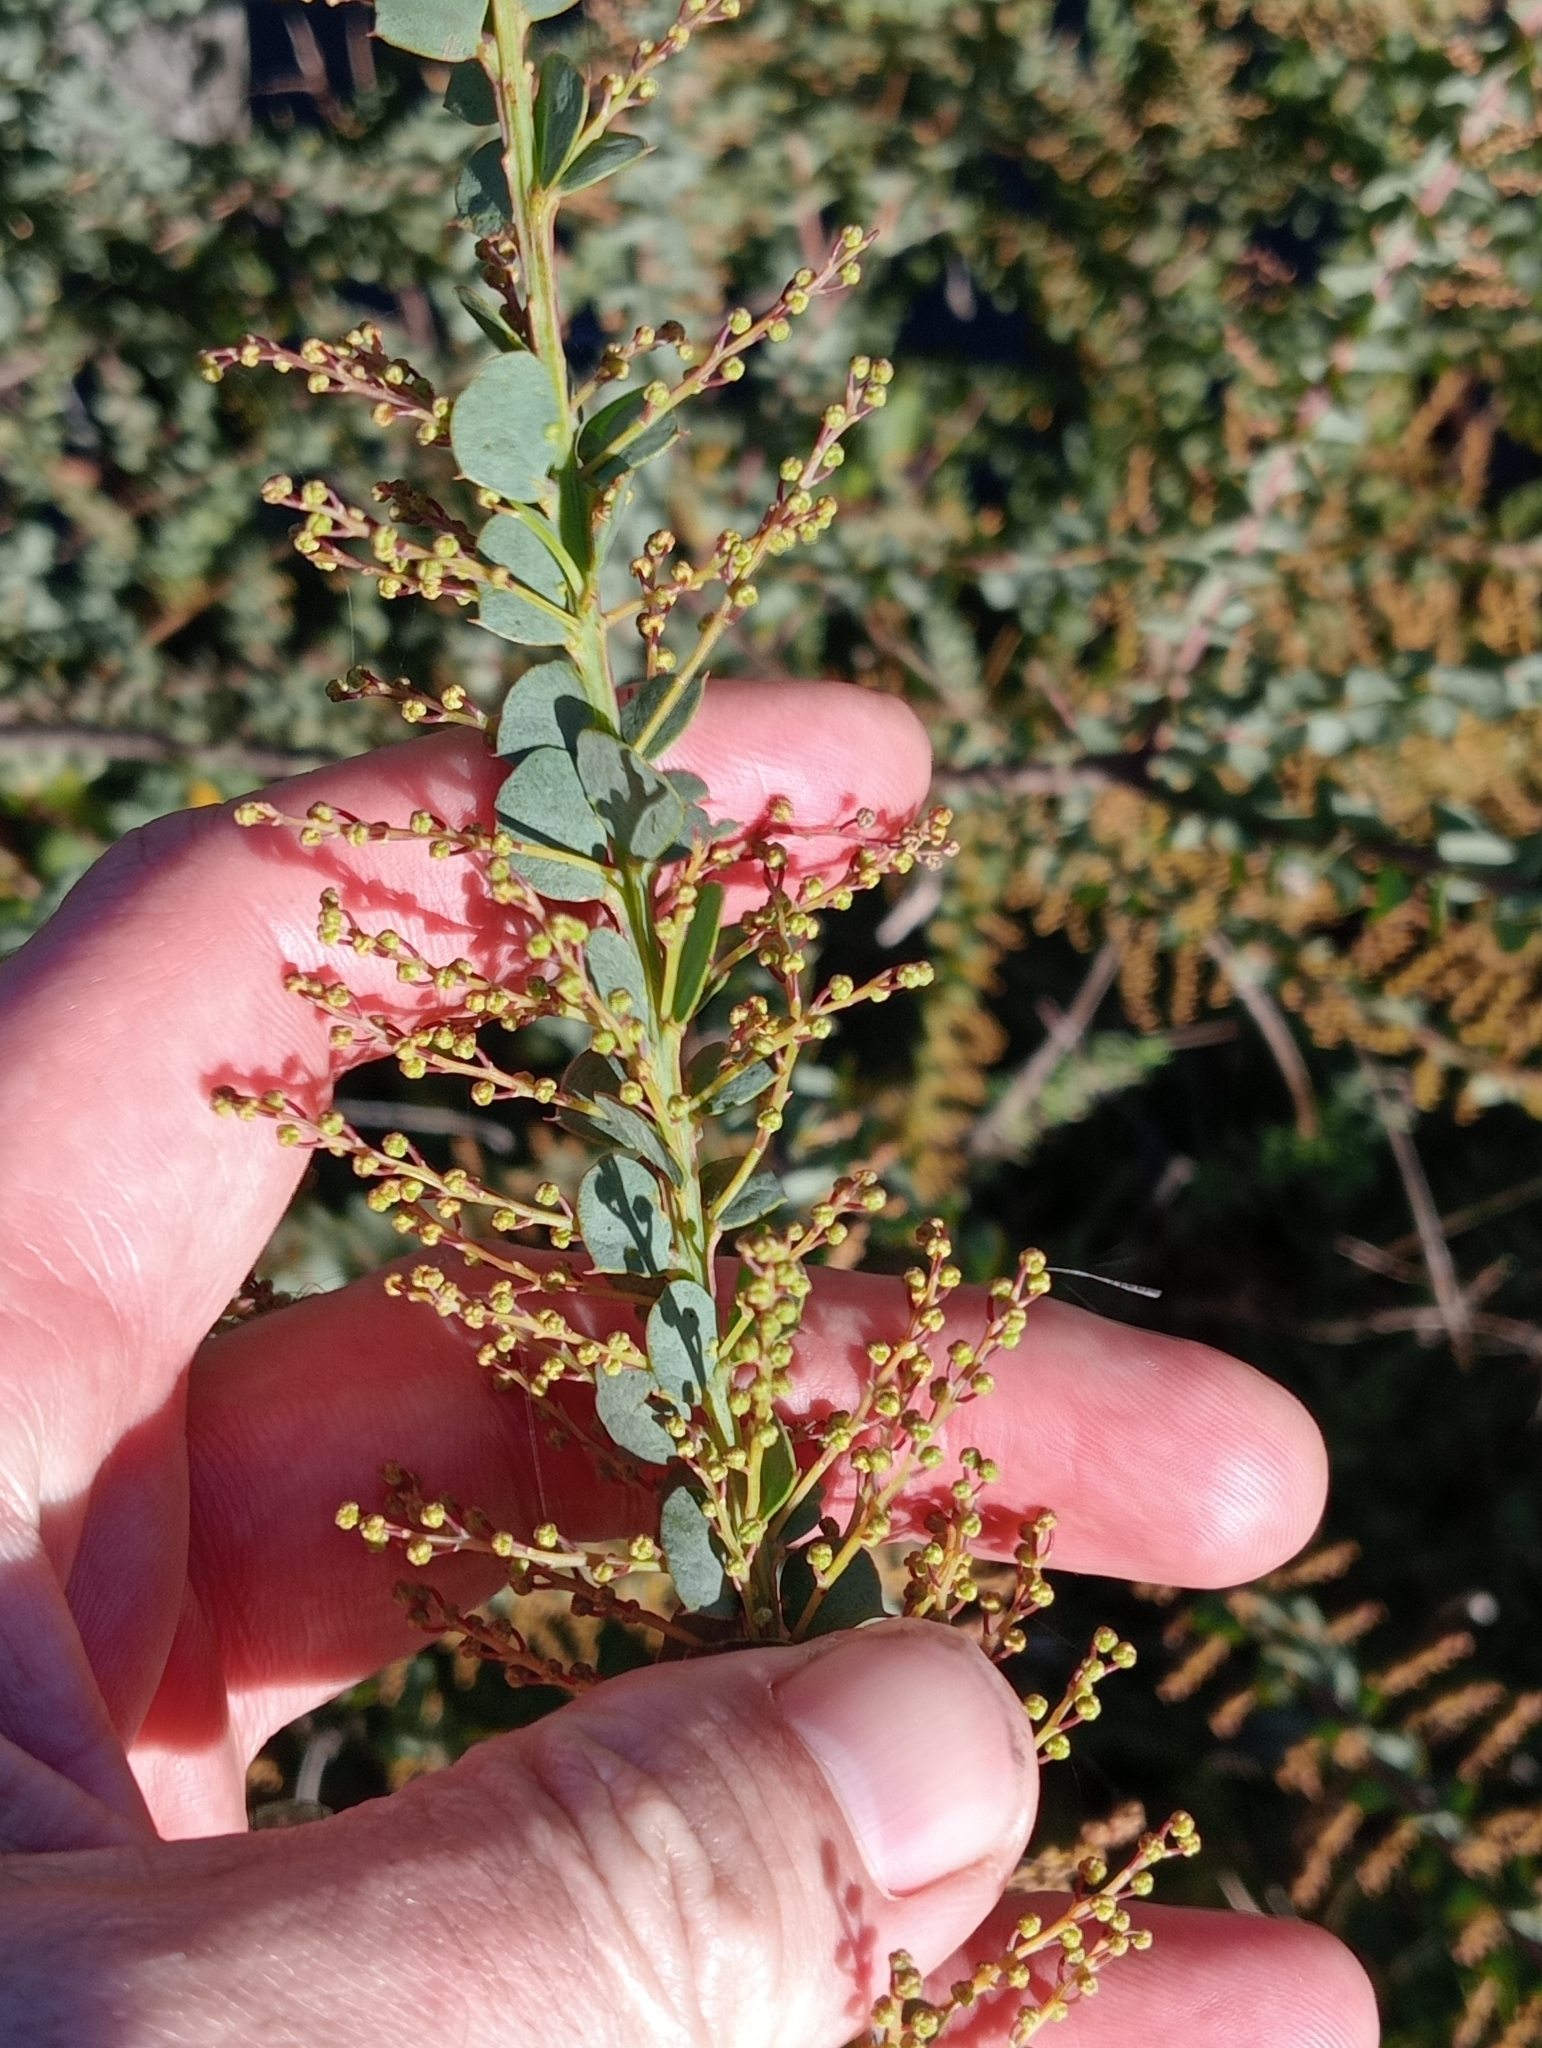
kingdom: Plantae
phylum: Tracheophyta
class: Magnoliopsida
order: Fabales
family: Fabaceae
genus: Acacia
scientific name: Acacia pravissima
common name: Tumut wattle
